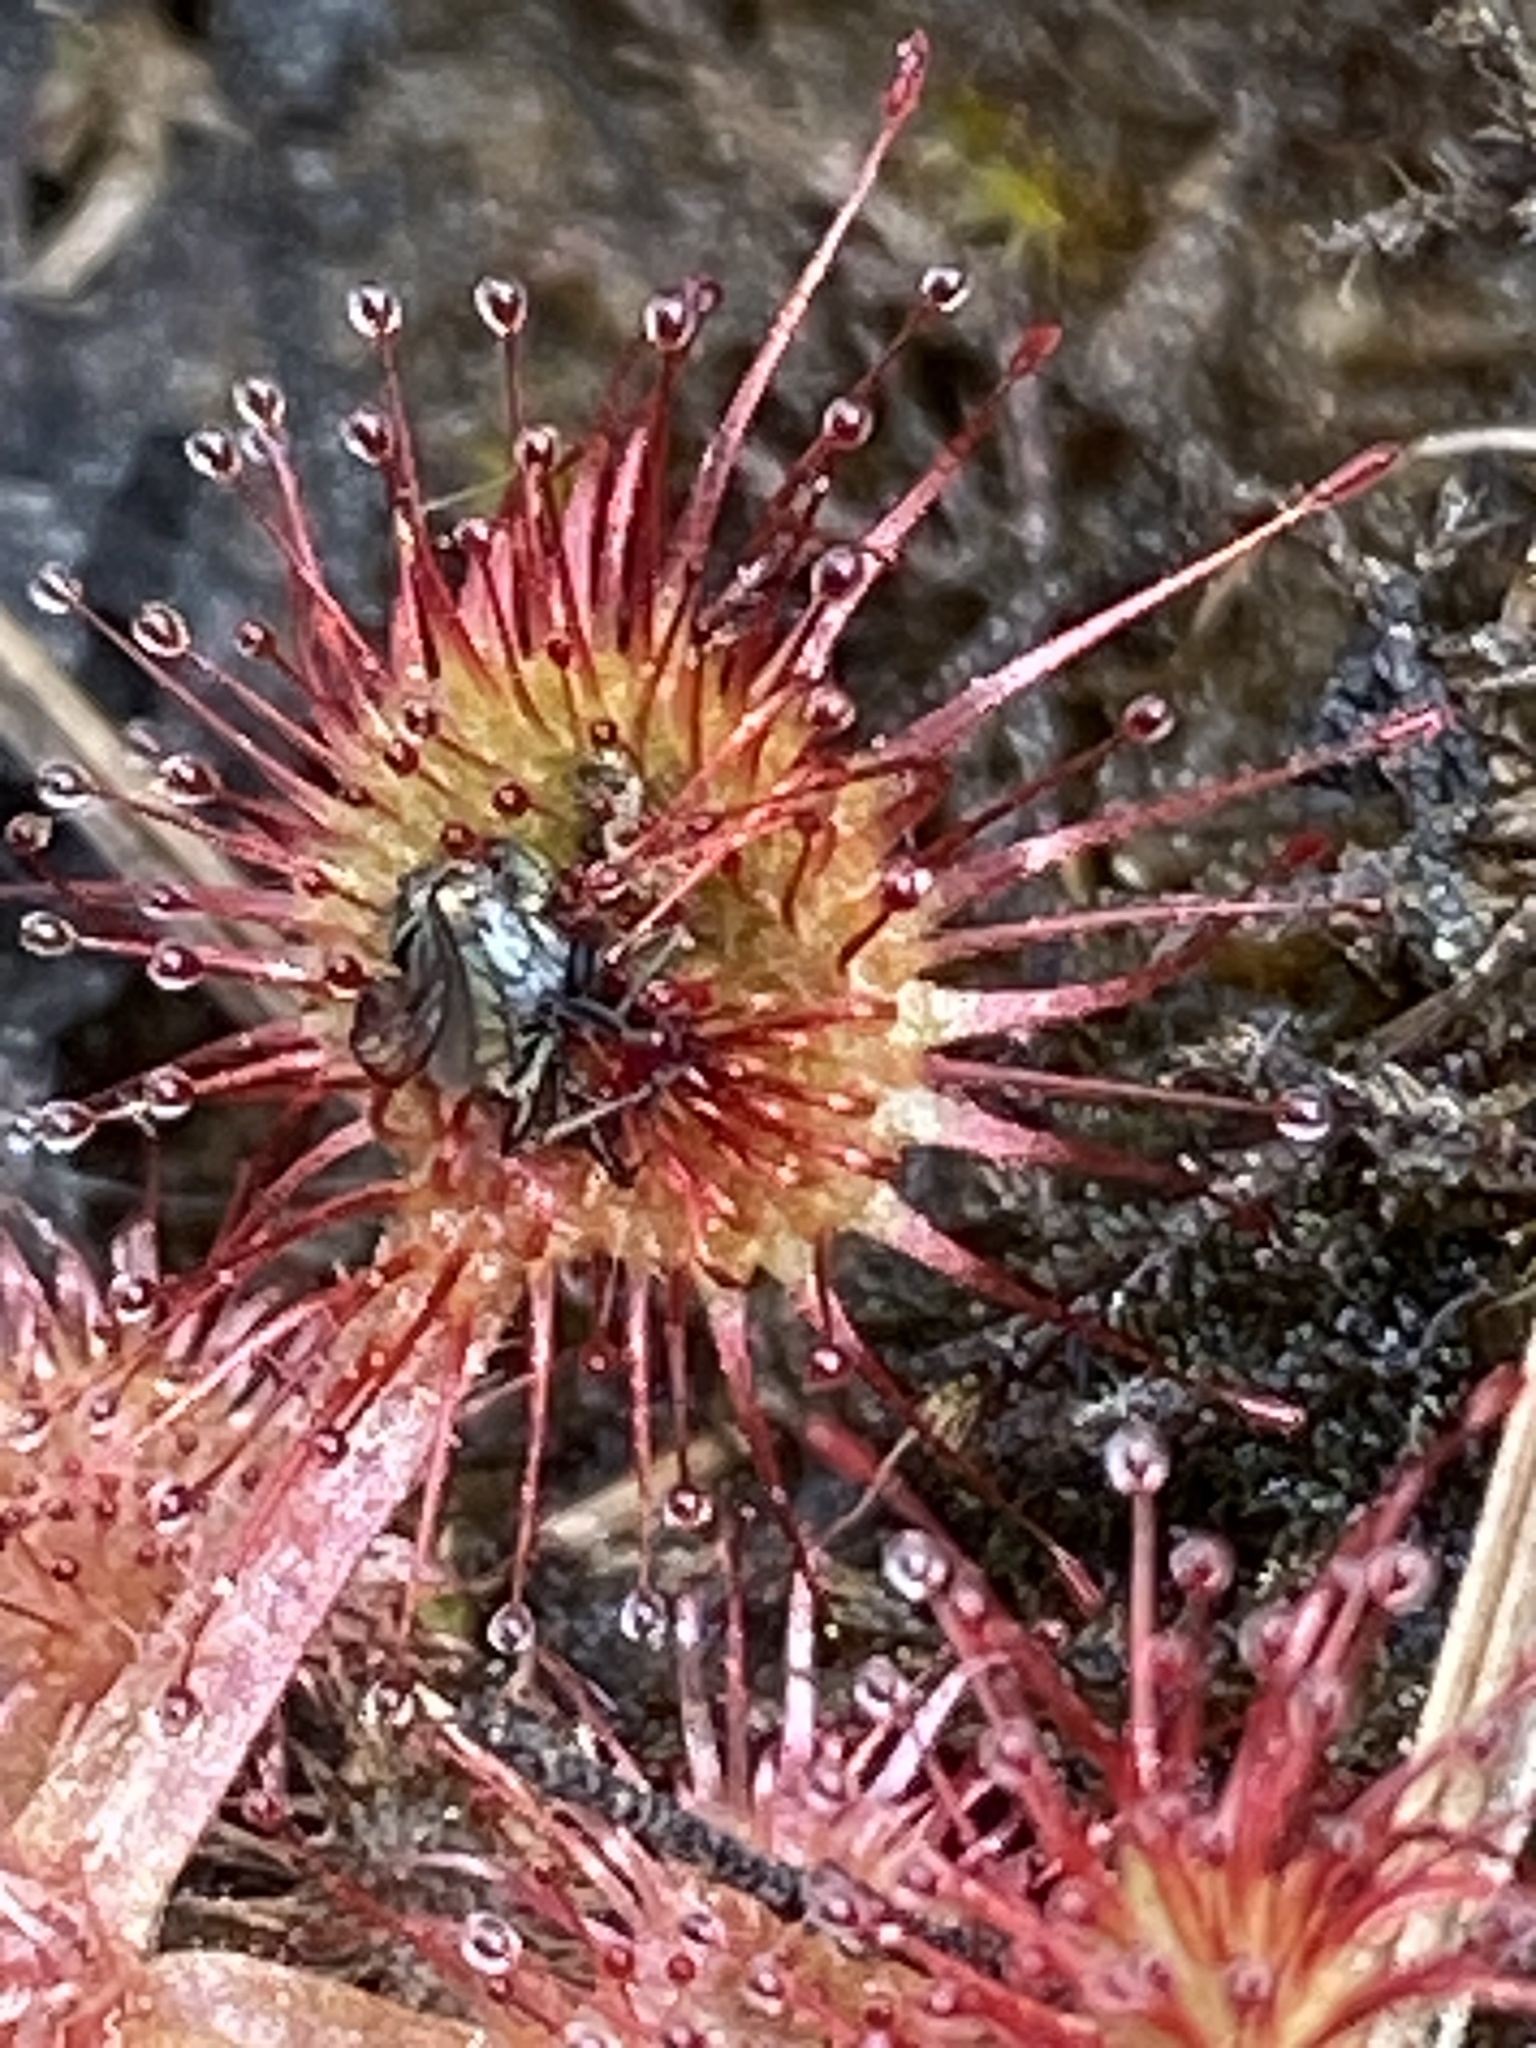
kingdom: Plantae
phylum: Tracheophyta
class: Magnoliopsida
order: Caryophyllales
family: Droseraceae
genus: Drosera
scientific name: Drosera rotundifolia
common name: Round-leaved sundew
